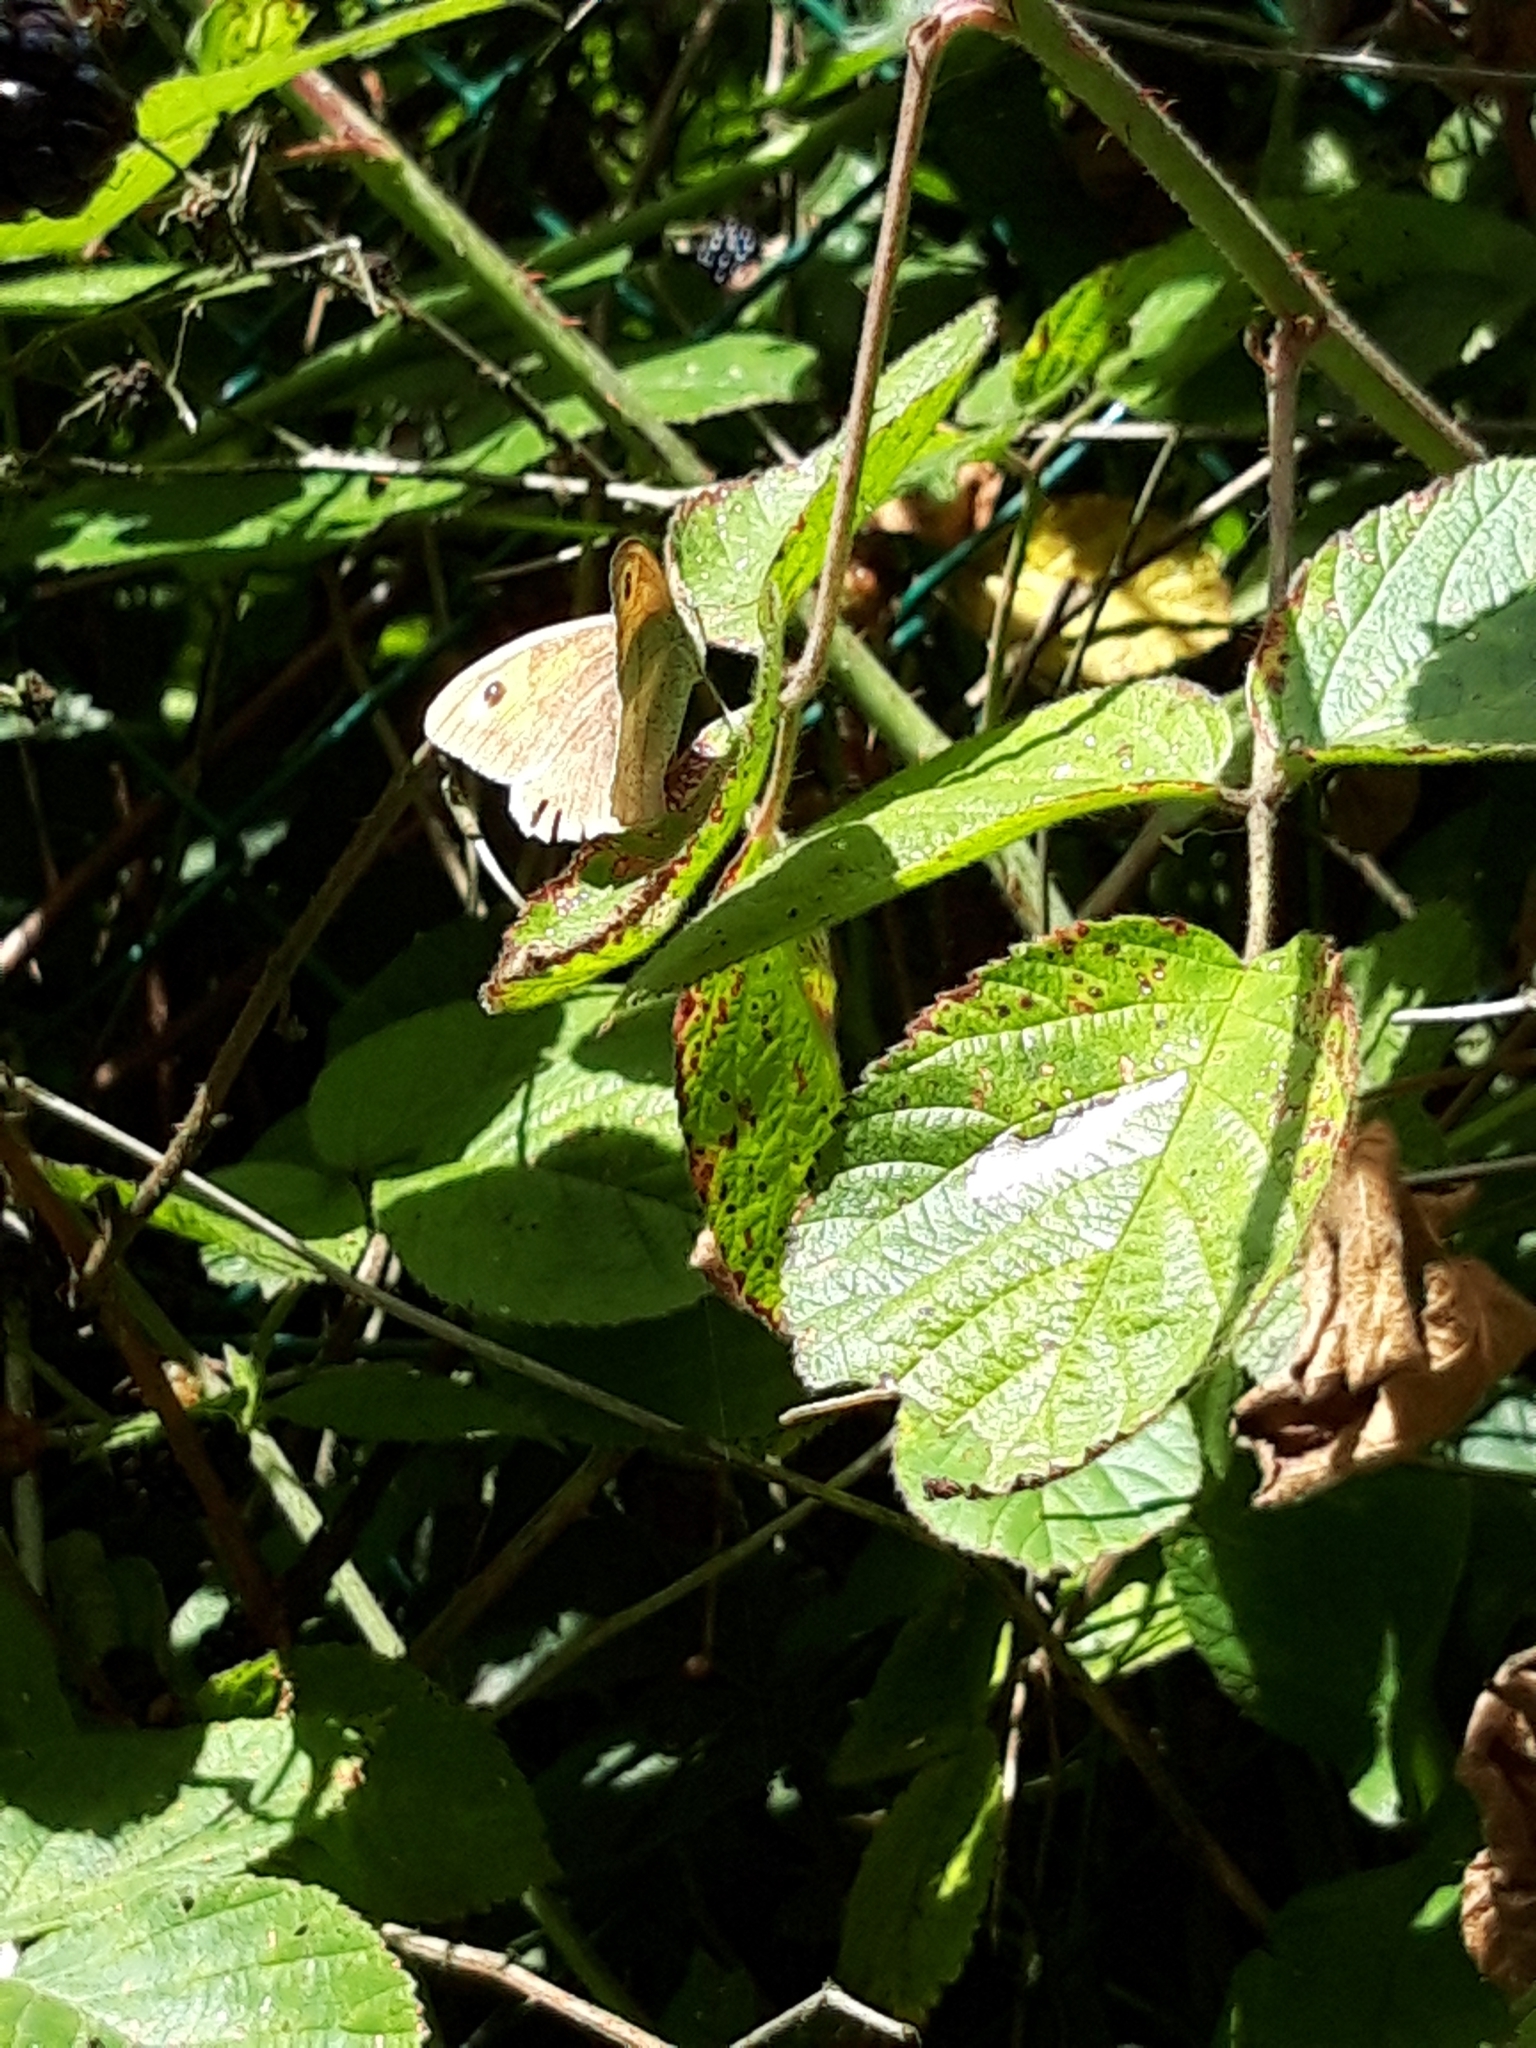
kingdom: Animalia
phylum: Arthropoda
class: Insecta
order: Lepidoptera
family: Nymphalidae
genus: Maniola
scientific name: Maniola jurtina
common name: Meadow brown
